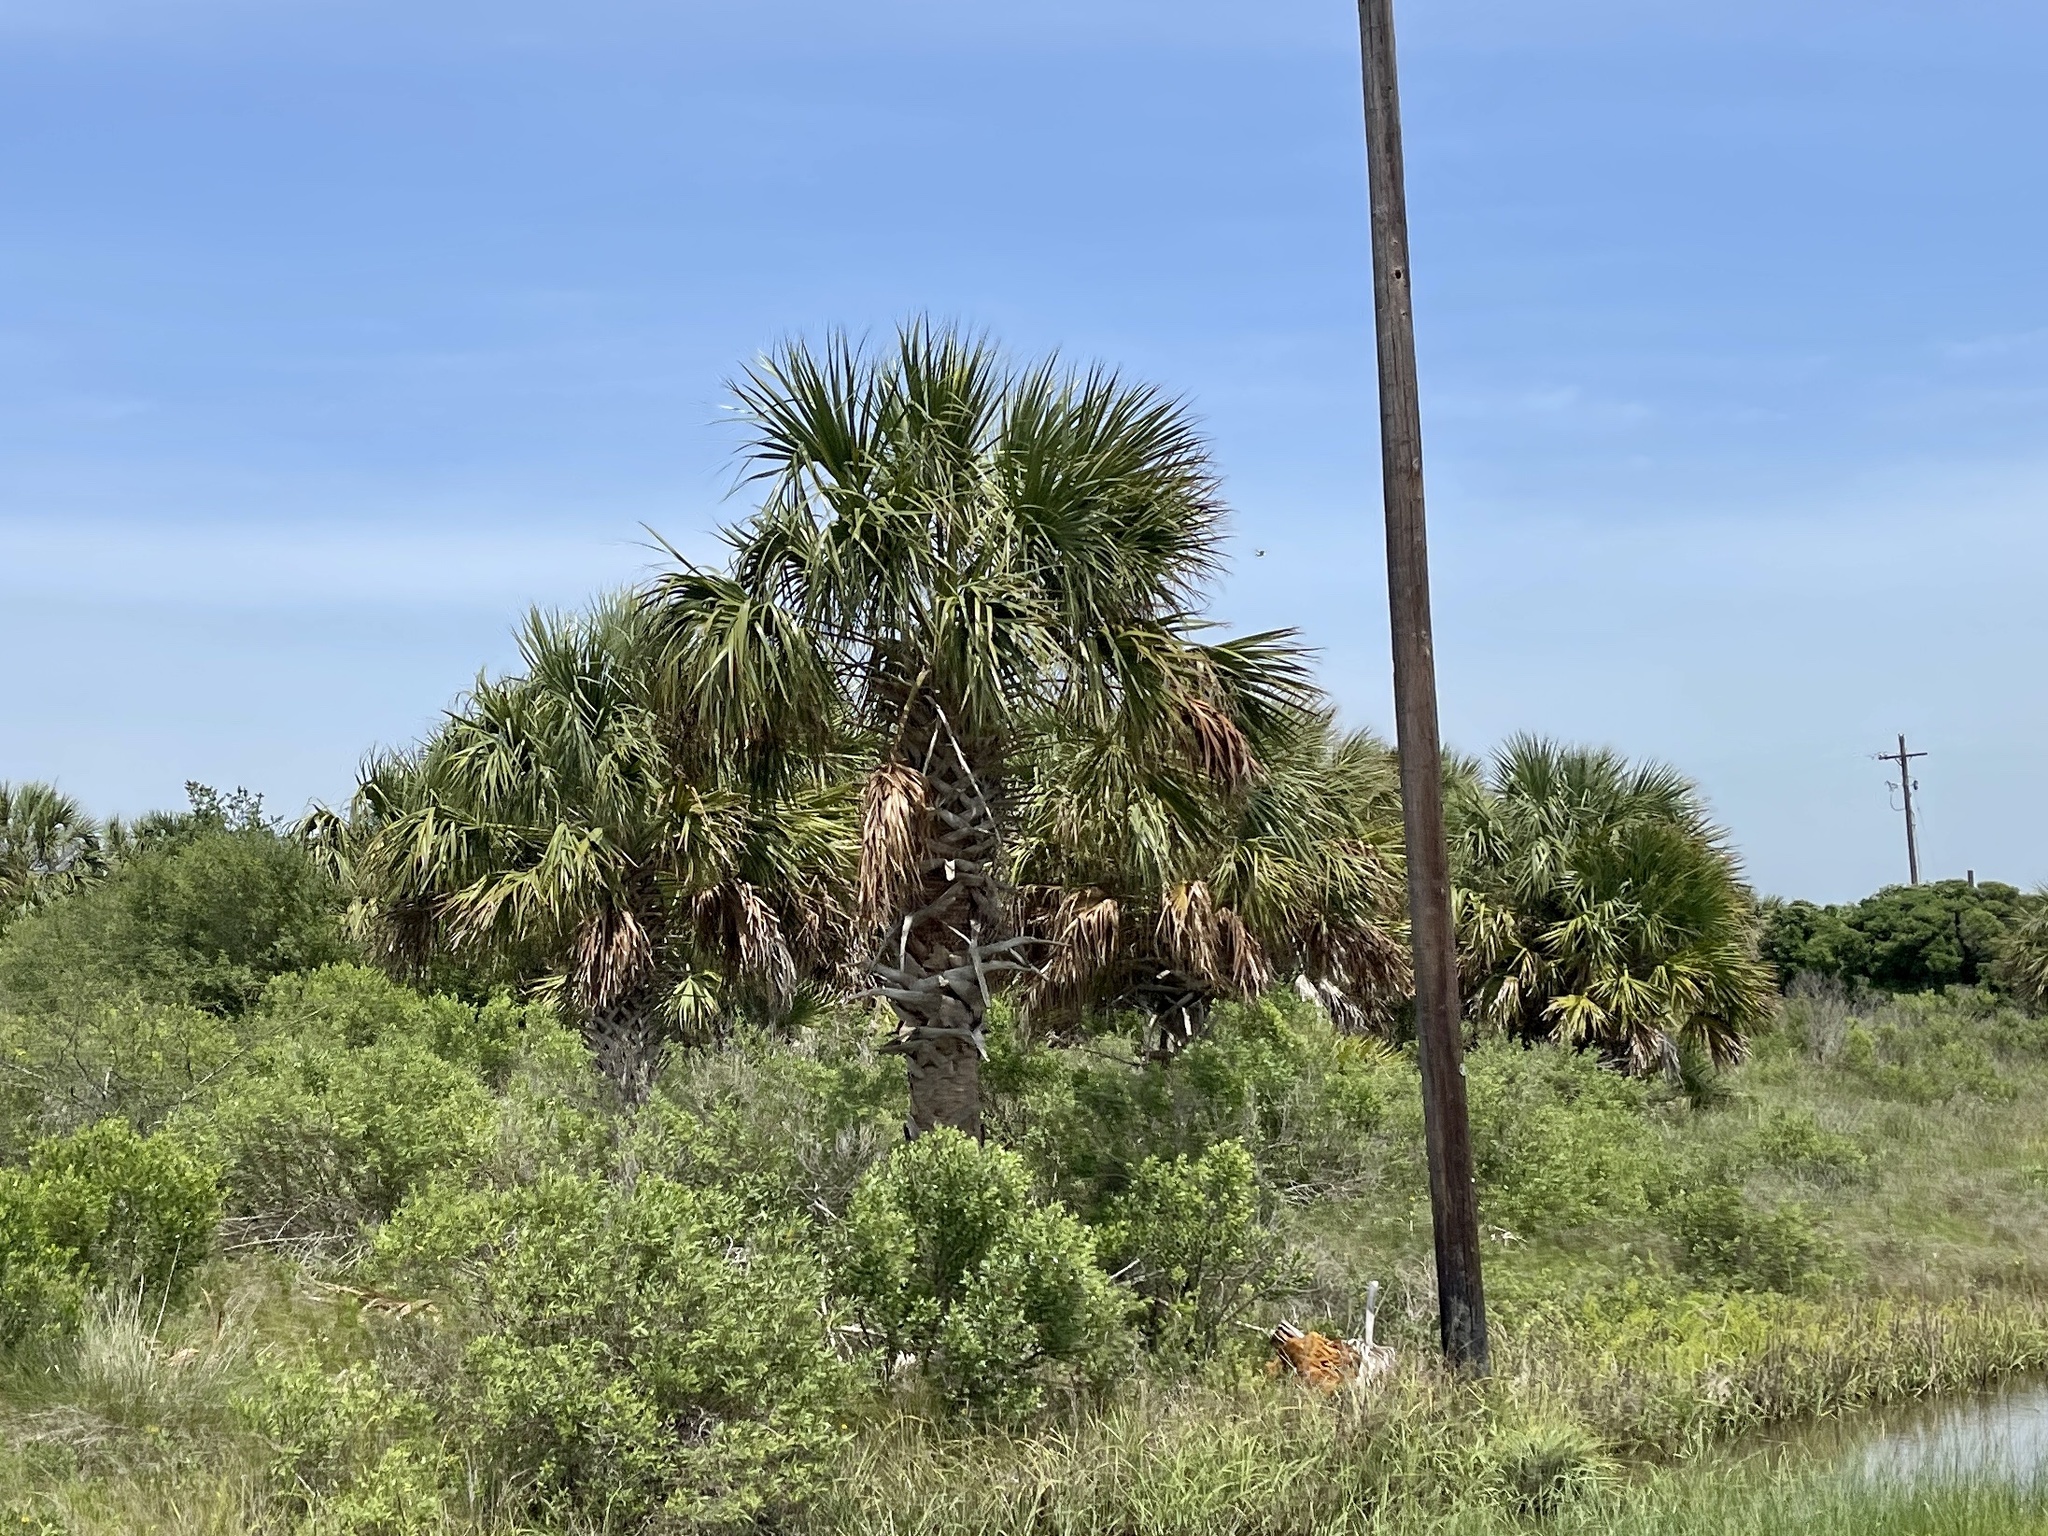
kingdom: Plantae
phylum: Tracheophyta
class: Liliopsida
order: Arecales
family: Arecaceae
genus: Sabal
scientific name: Sabal palmetto
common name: Blue palmetto
